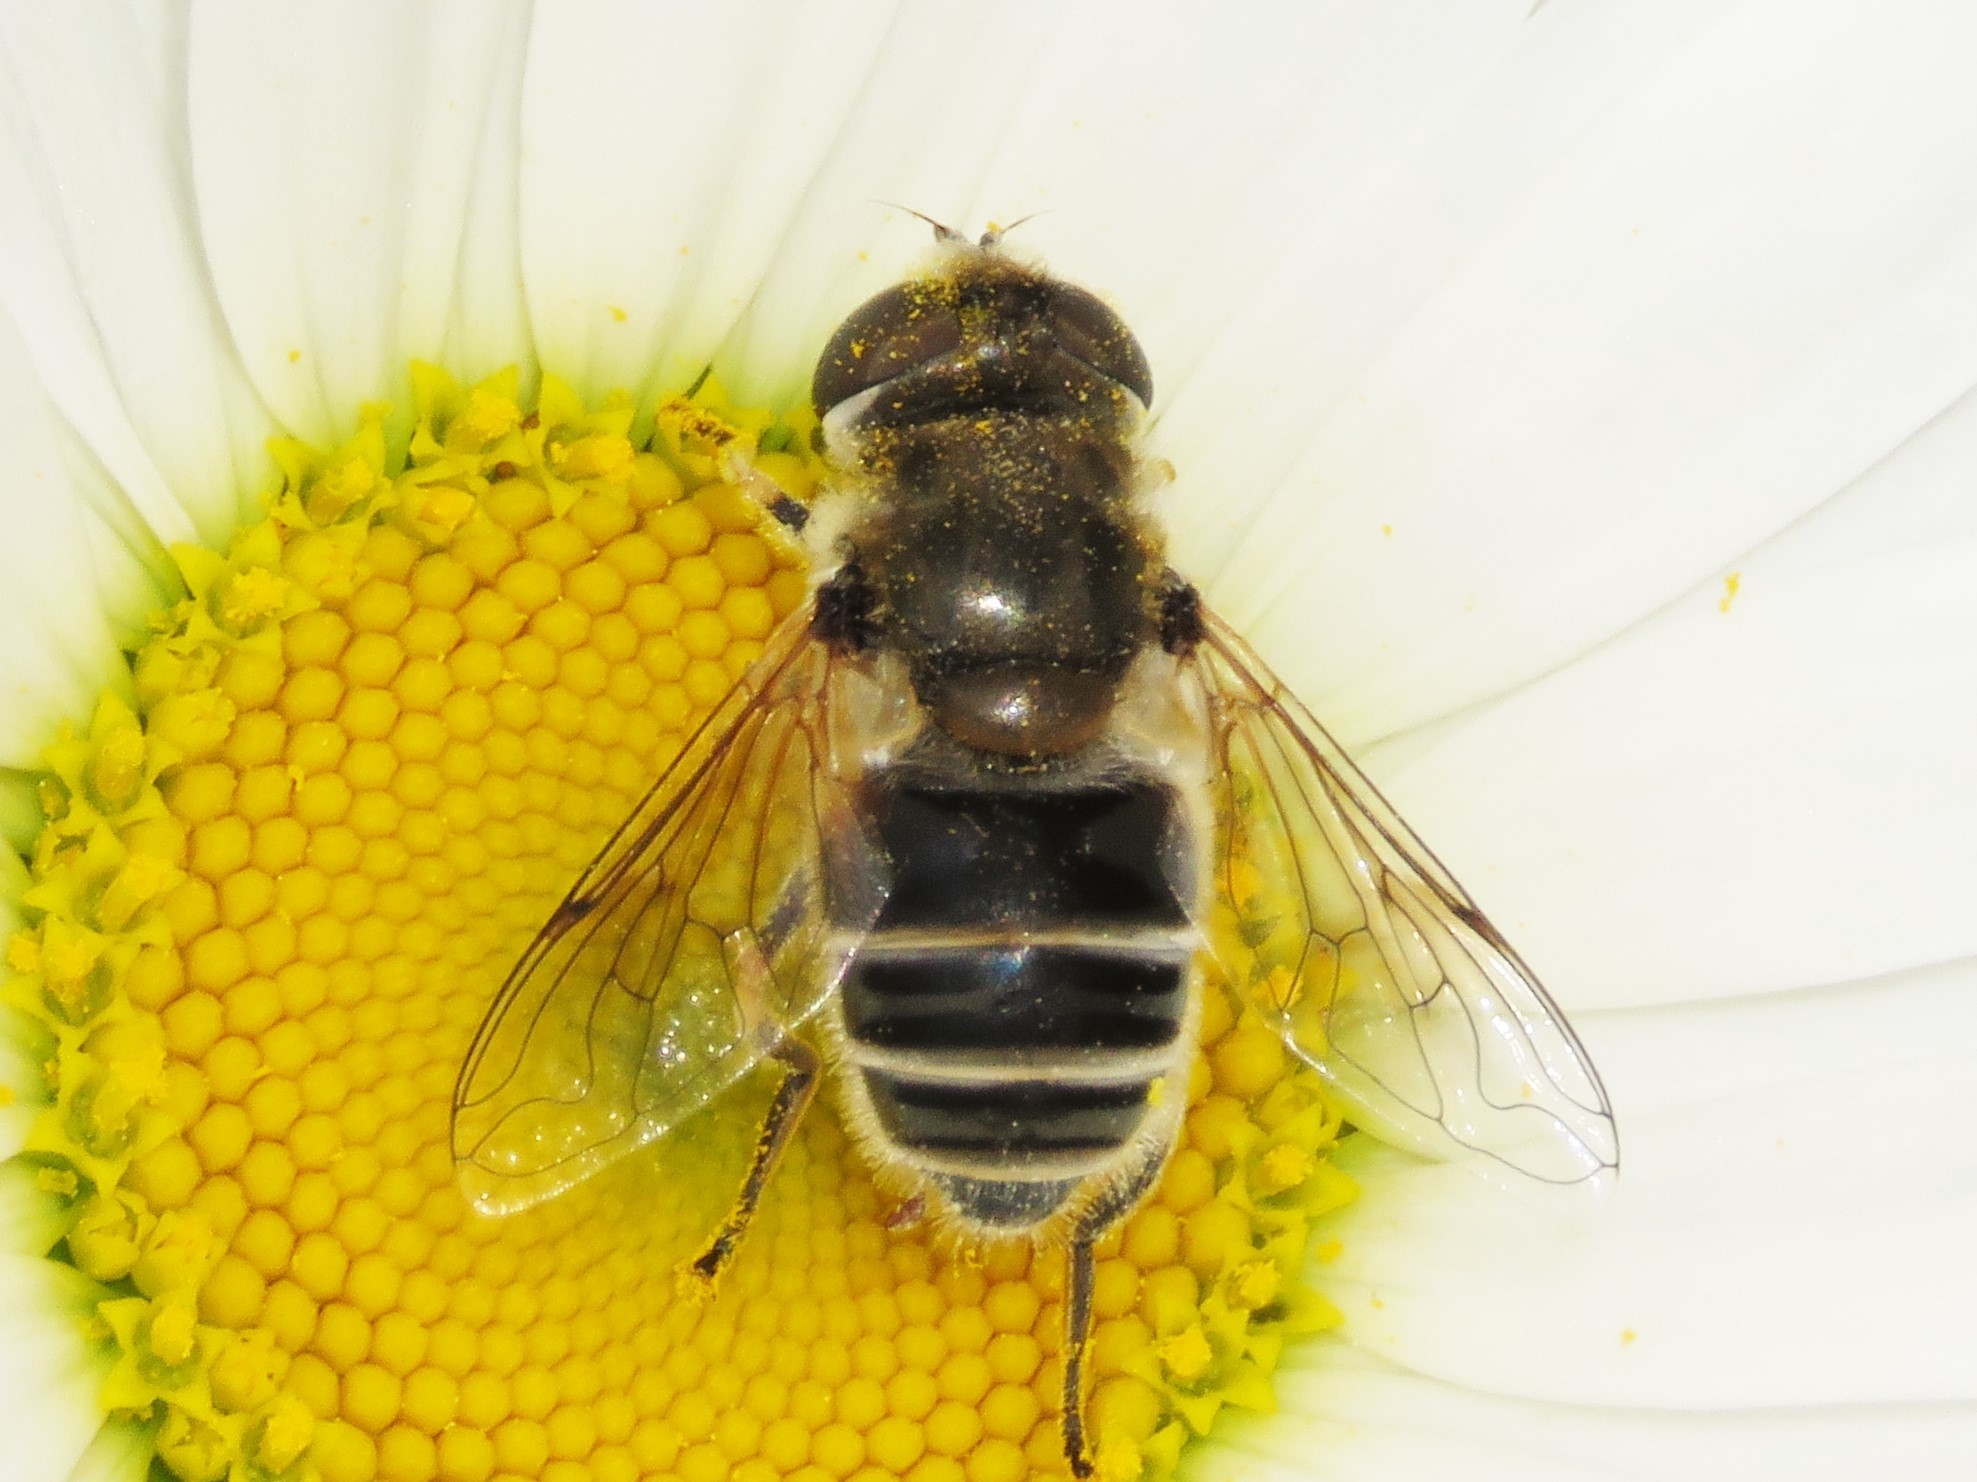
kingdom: Animalia
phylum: Arthropoda
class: Insecta
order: Diptera
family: Syrphidae
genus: Eristalis
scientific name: Eristalis arbustorum
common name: Hover fly
